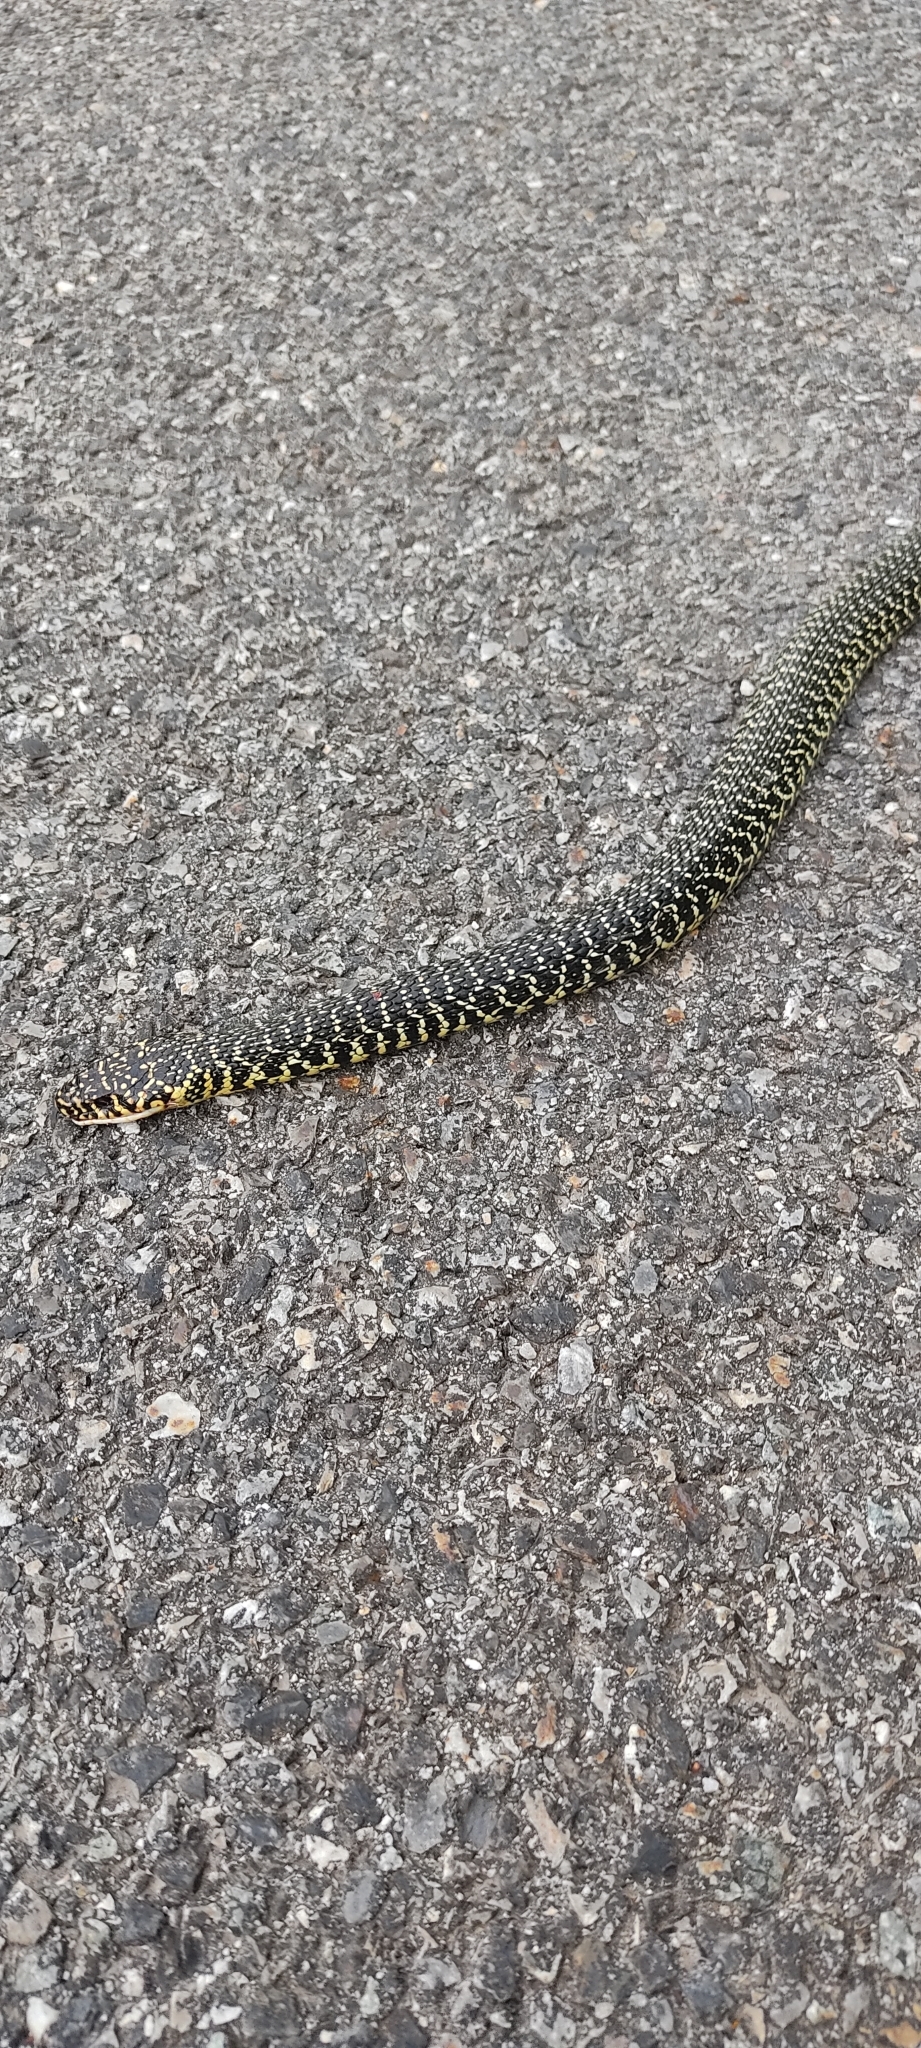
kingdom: Animalia
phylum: Chordata
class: Squamata
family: Colubridae
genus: Hierophis
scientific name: Hierophis viridiflavus
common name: Green whip snake
